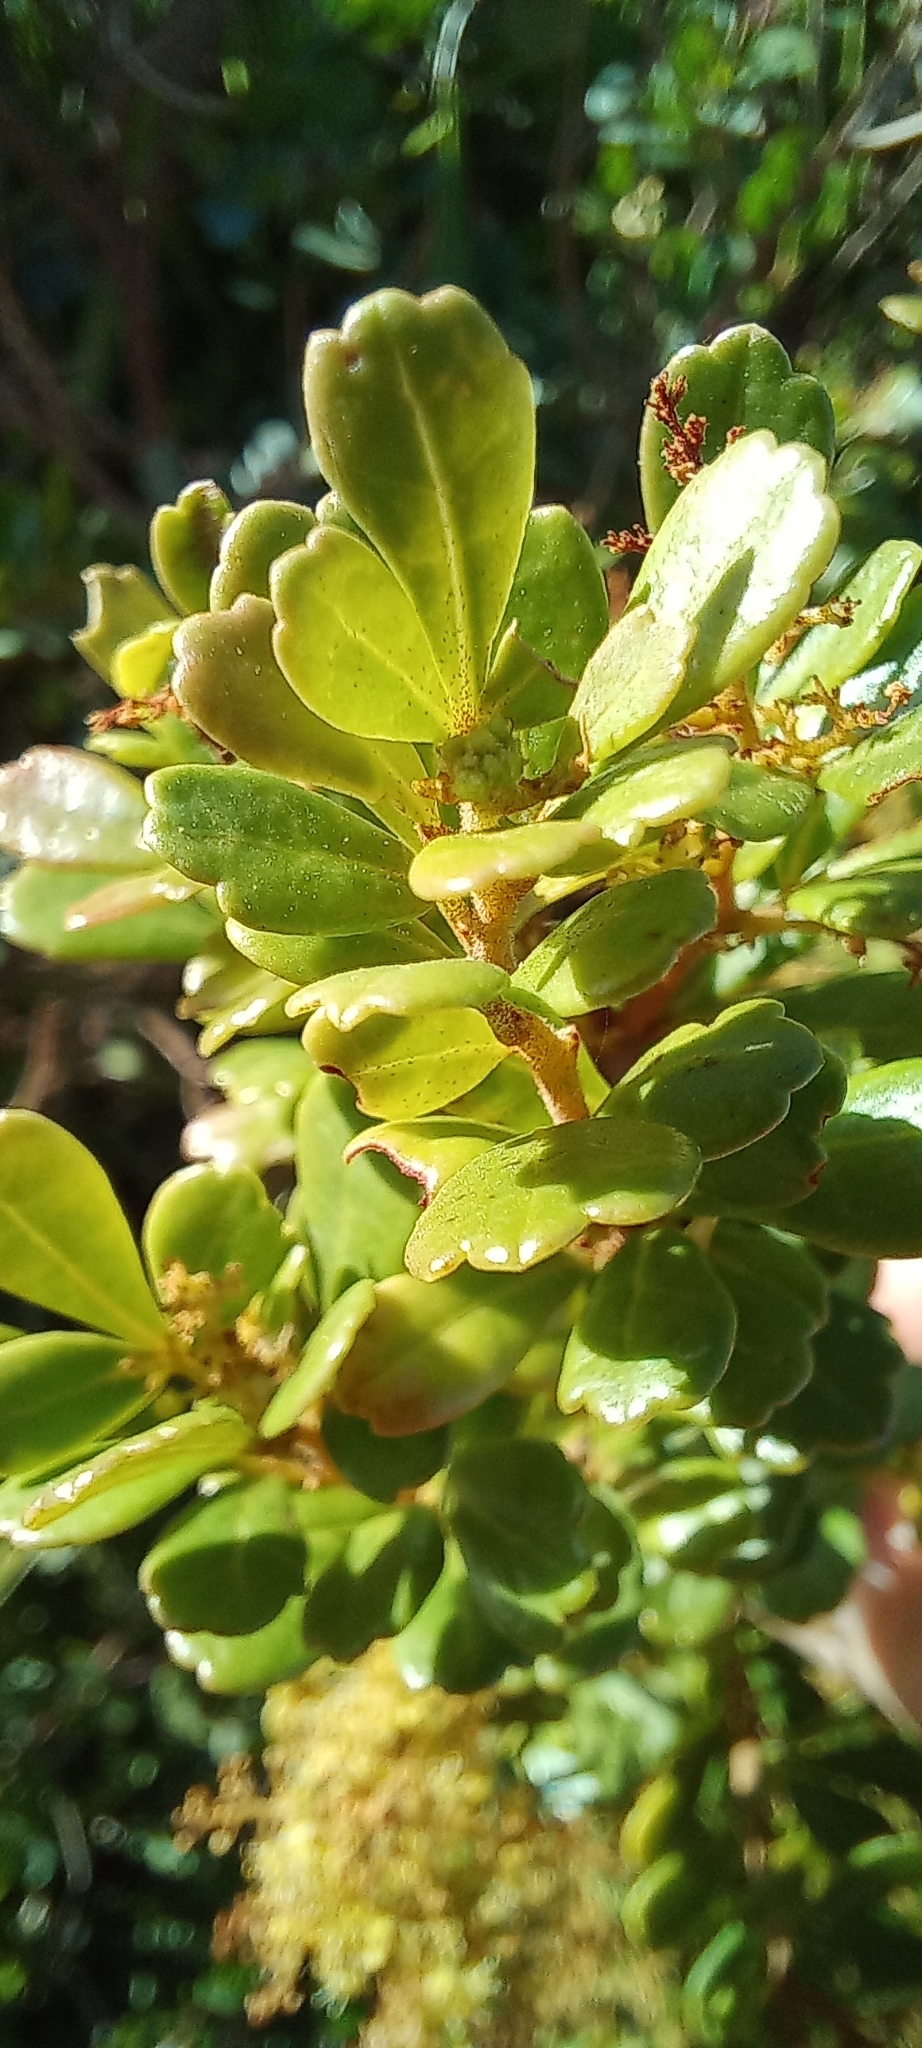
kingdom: Plantae
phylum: Tracheophyta
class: Magnoliopsida
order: Sapindales
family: Anacardiaceae
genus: Searsia
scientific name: Searsia crenata
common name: Crowberry
